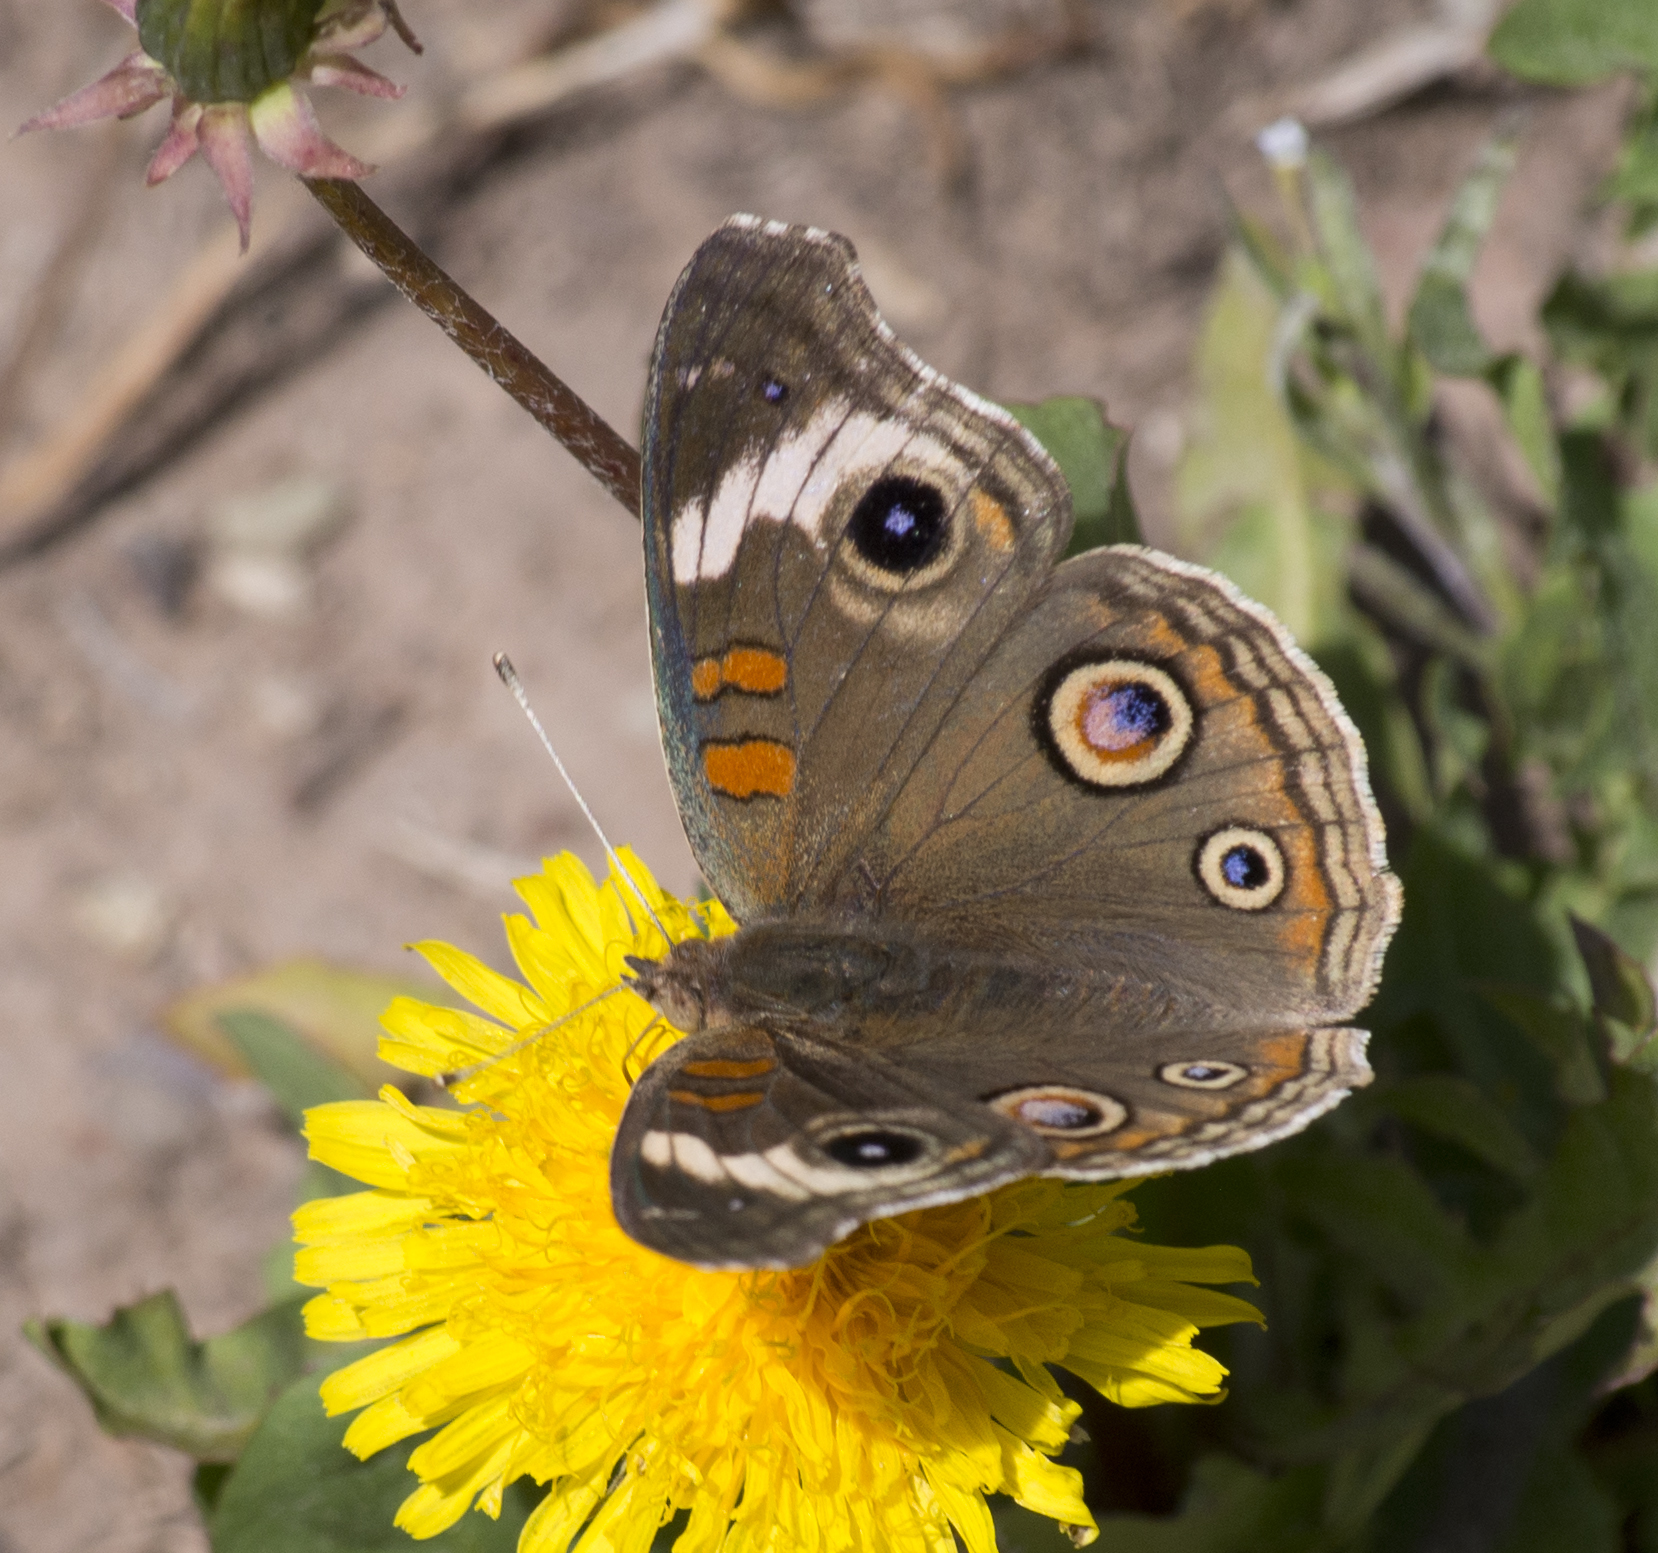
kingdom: Animalia
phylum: Arthropoda
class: Insecta
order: Lepidoptera
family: Nymphalidae
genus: Junonia
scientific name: Junonia grisea
